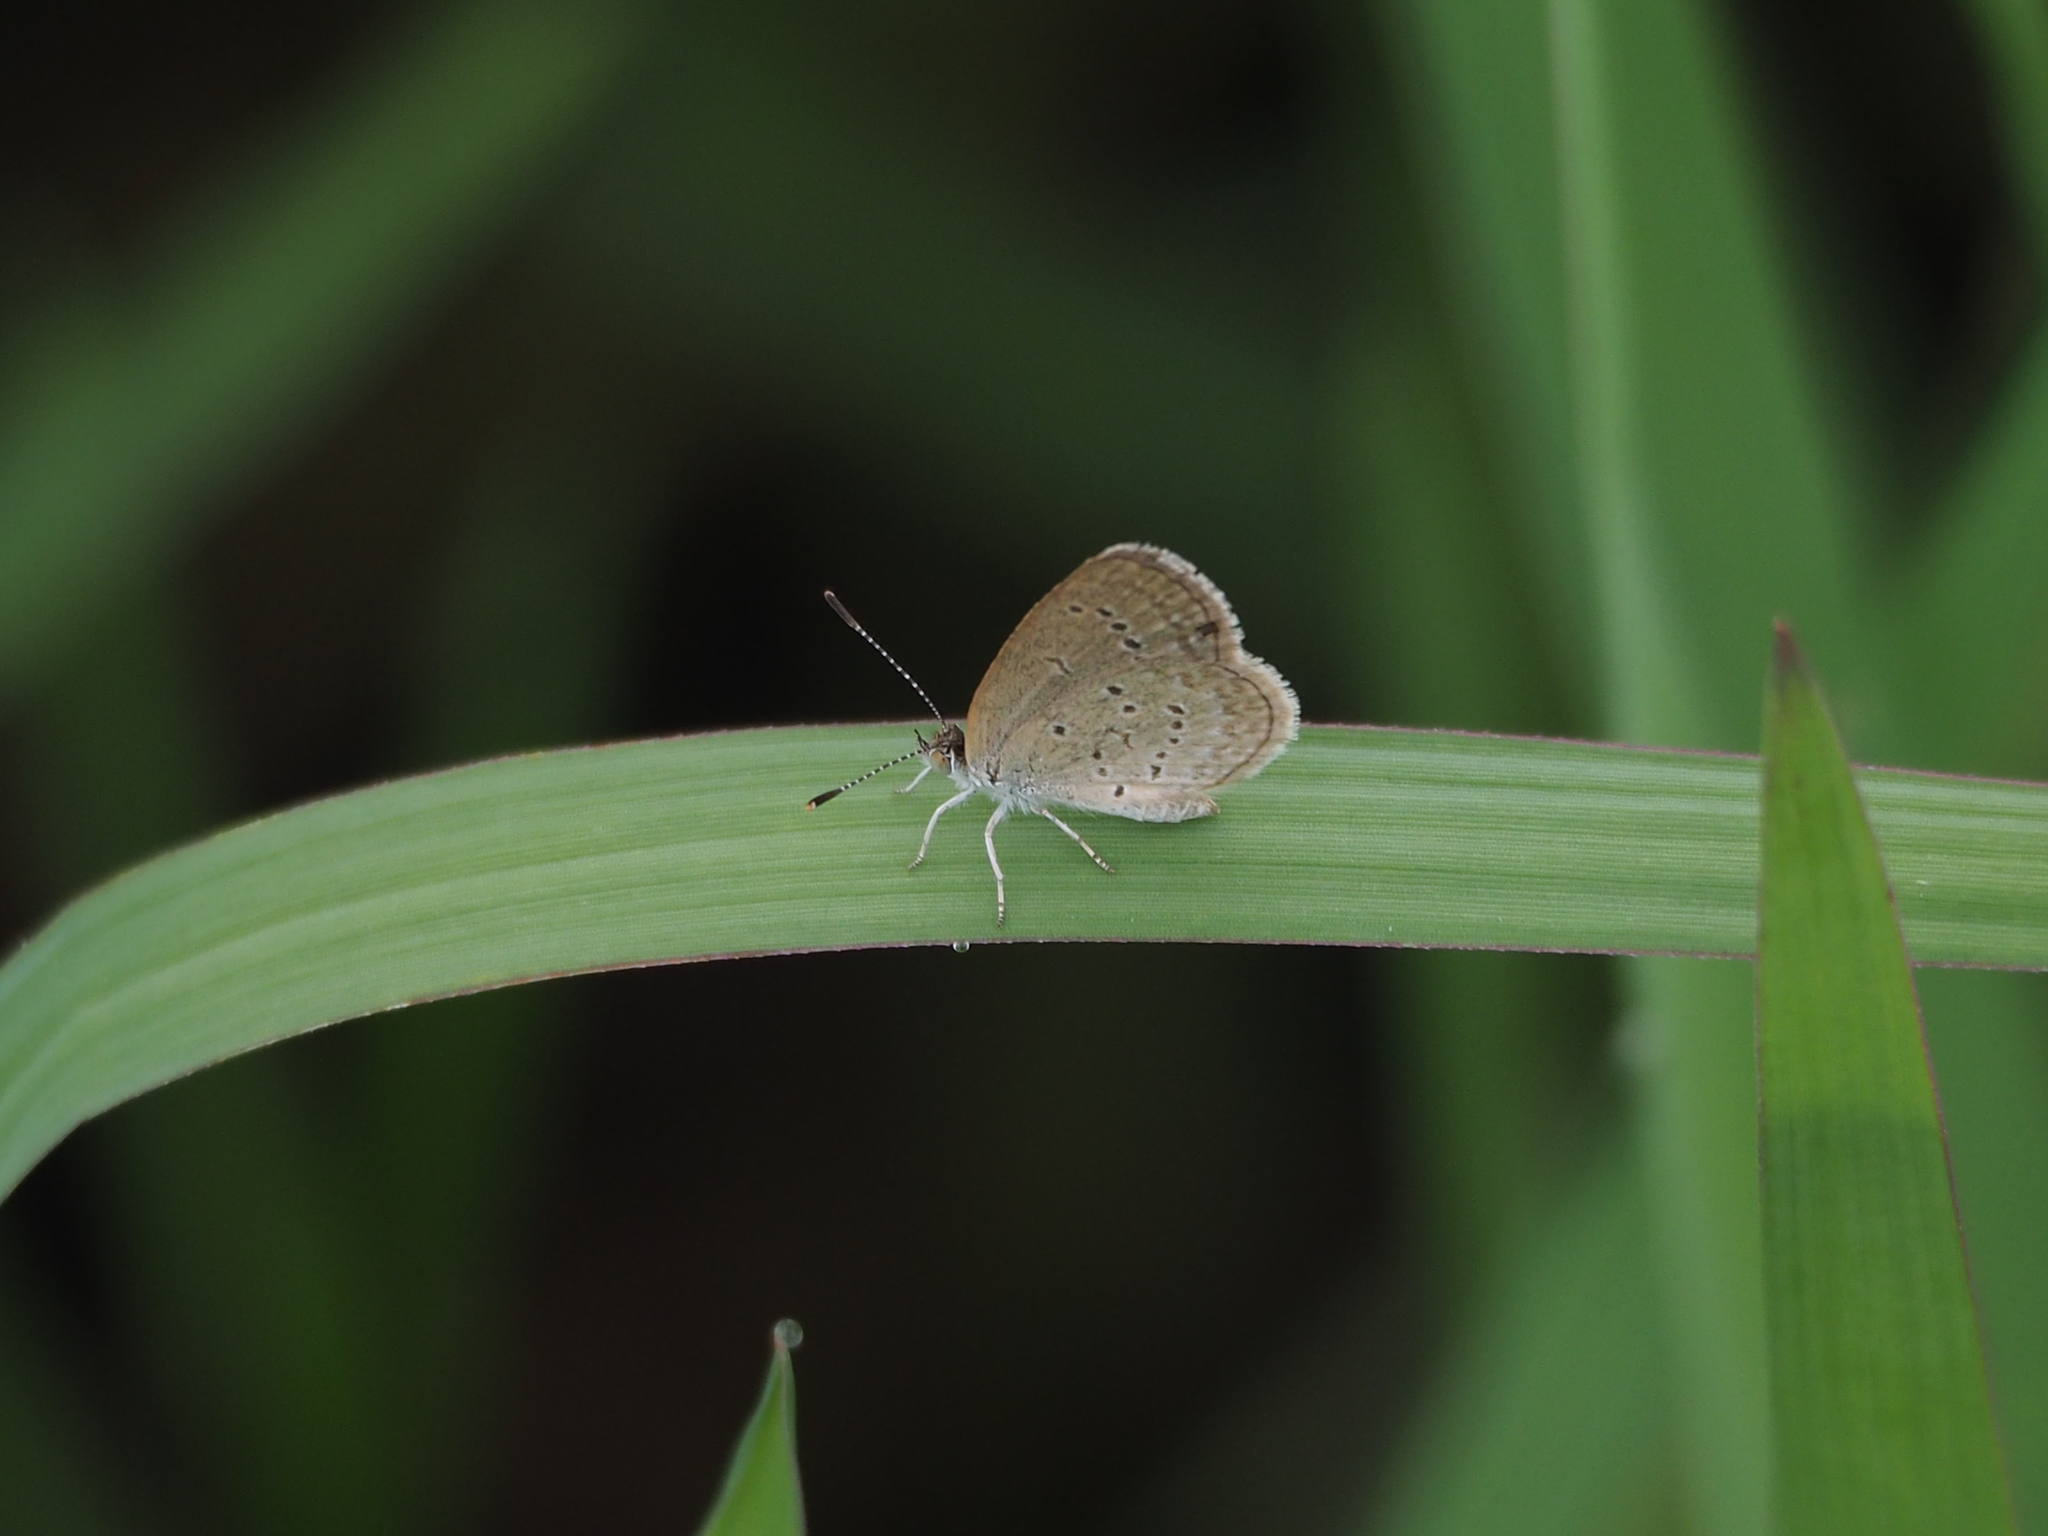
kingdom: Animalia
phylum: Arthropoda
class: Insecta
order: Lepidoptera
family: Lycaenidae
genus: Zizina
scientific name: Zizina otis
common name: Lesser grass blue
